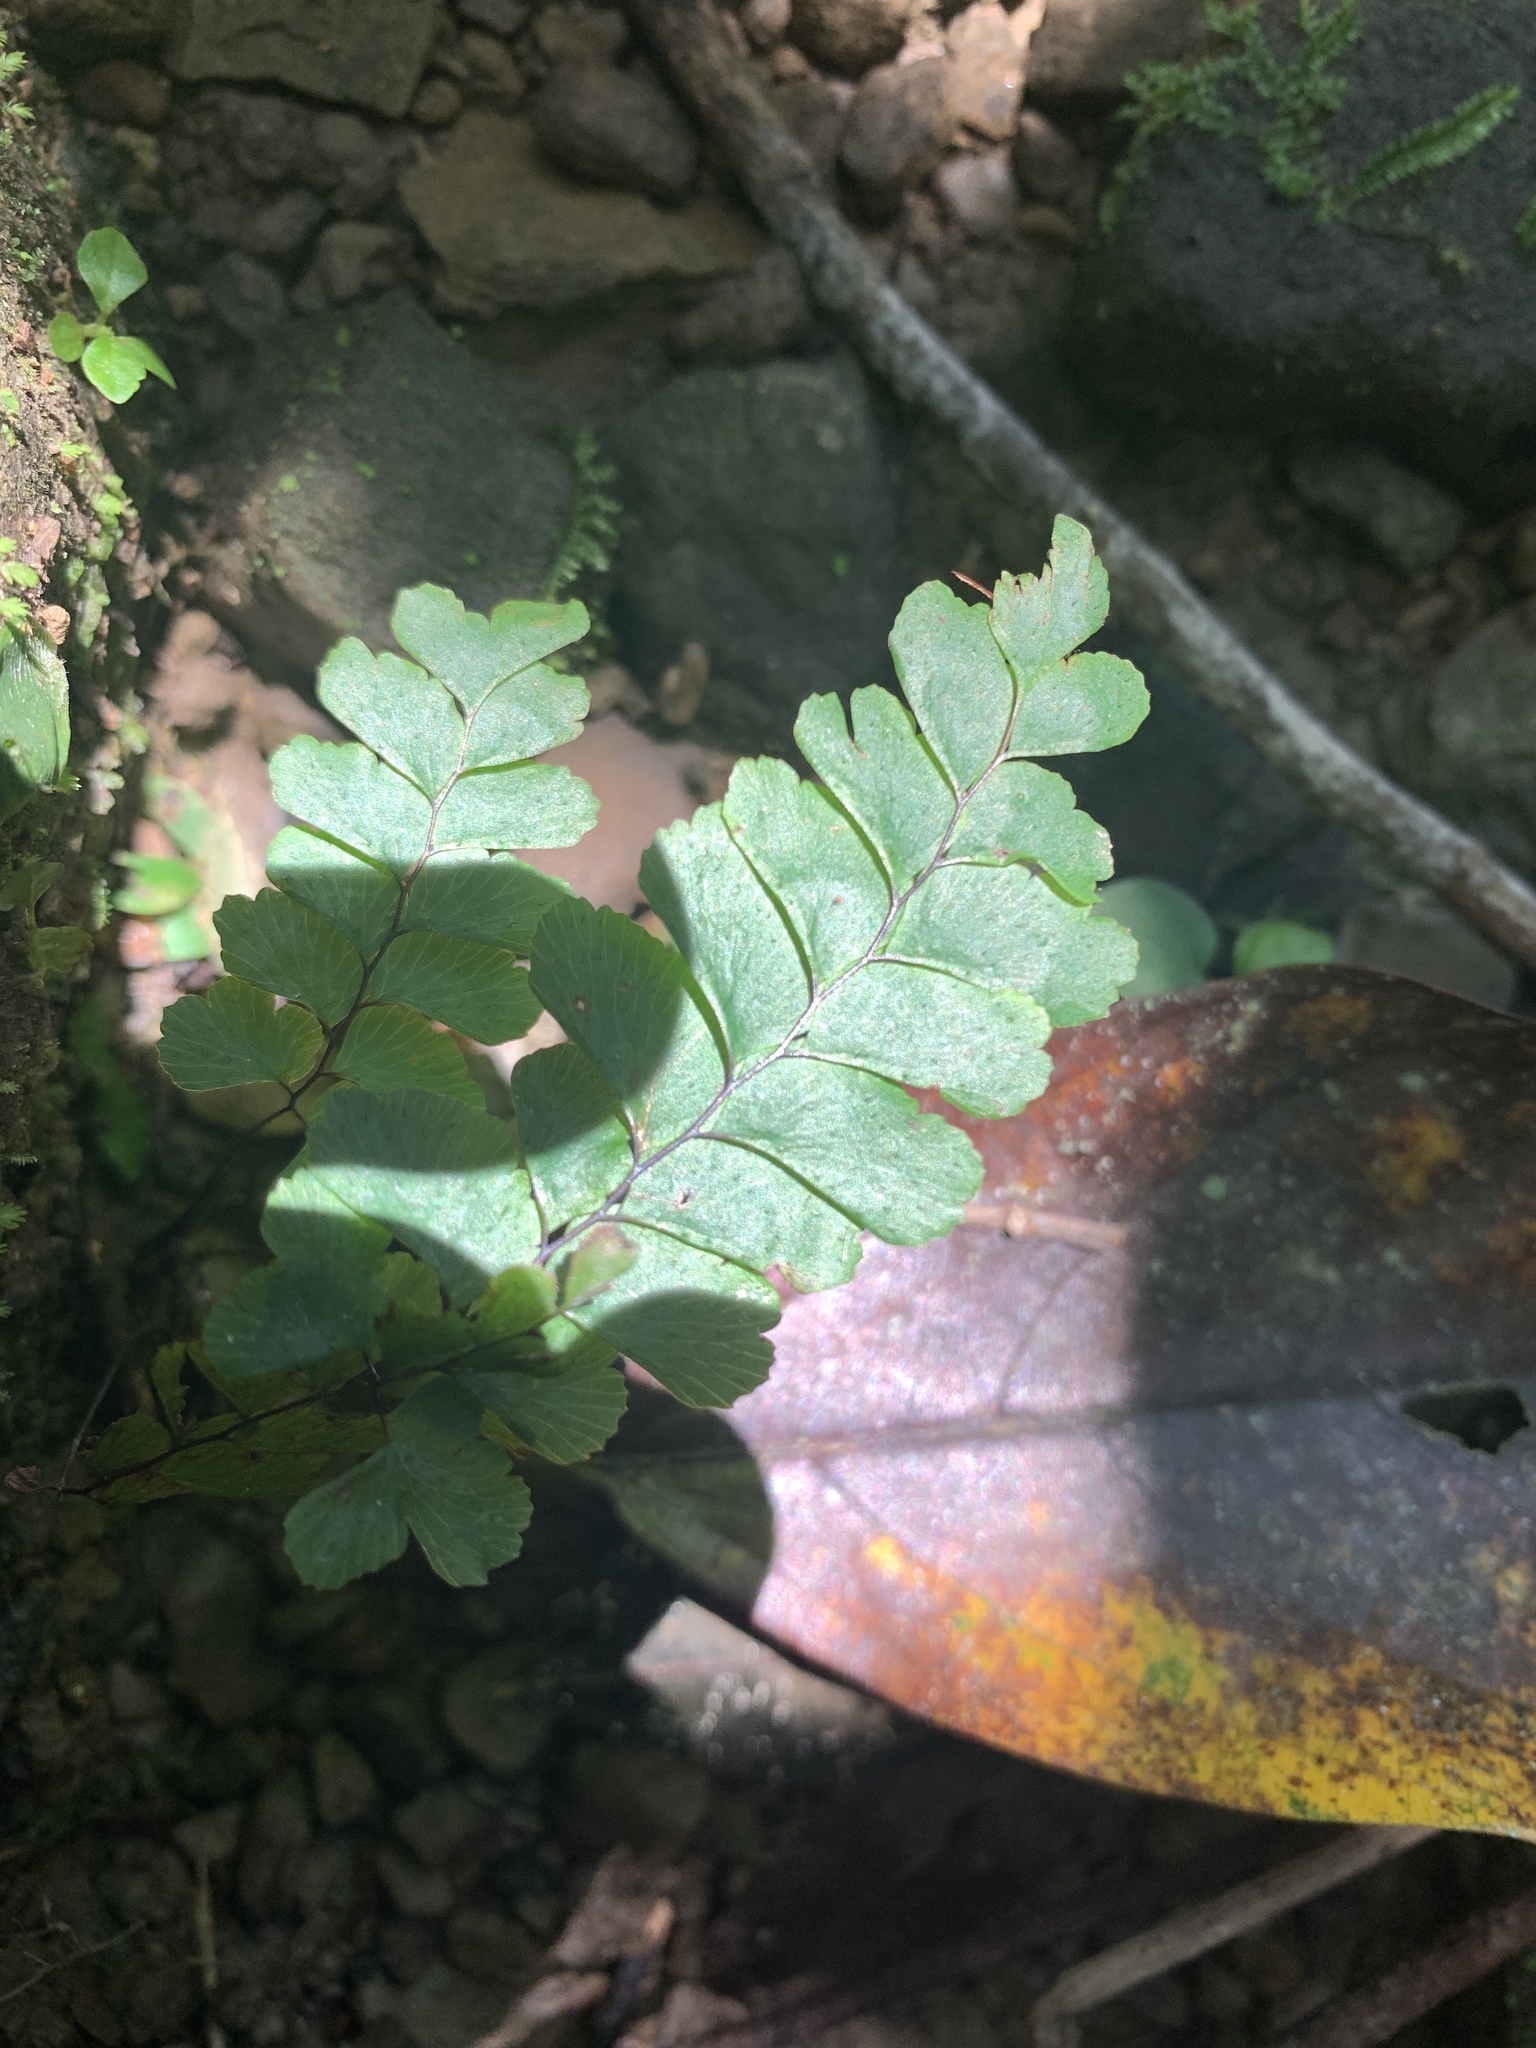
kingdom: Plantae
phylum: Tracheophyta
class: Polypodiopsida
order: Polypodiales
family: Pteridaceae
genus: Adiantum
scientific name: Adiantum diaphanum
